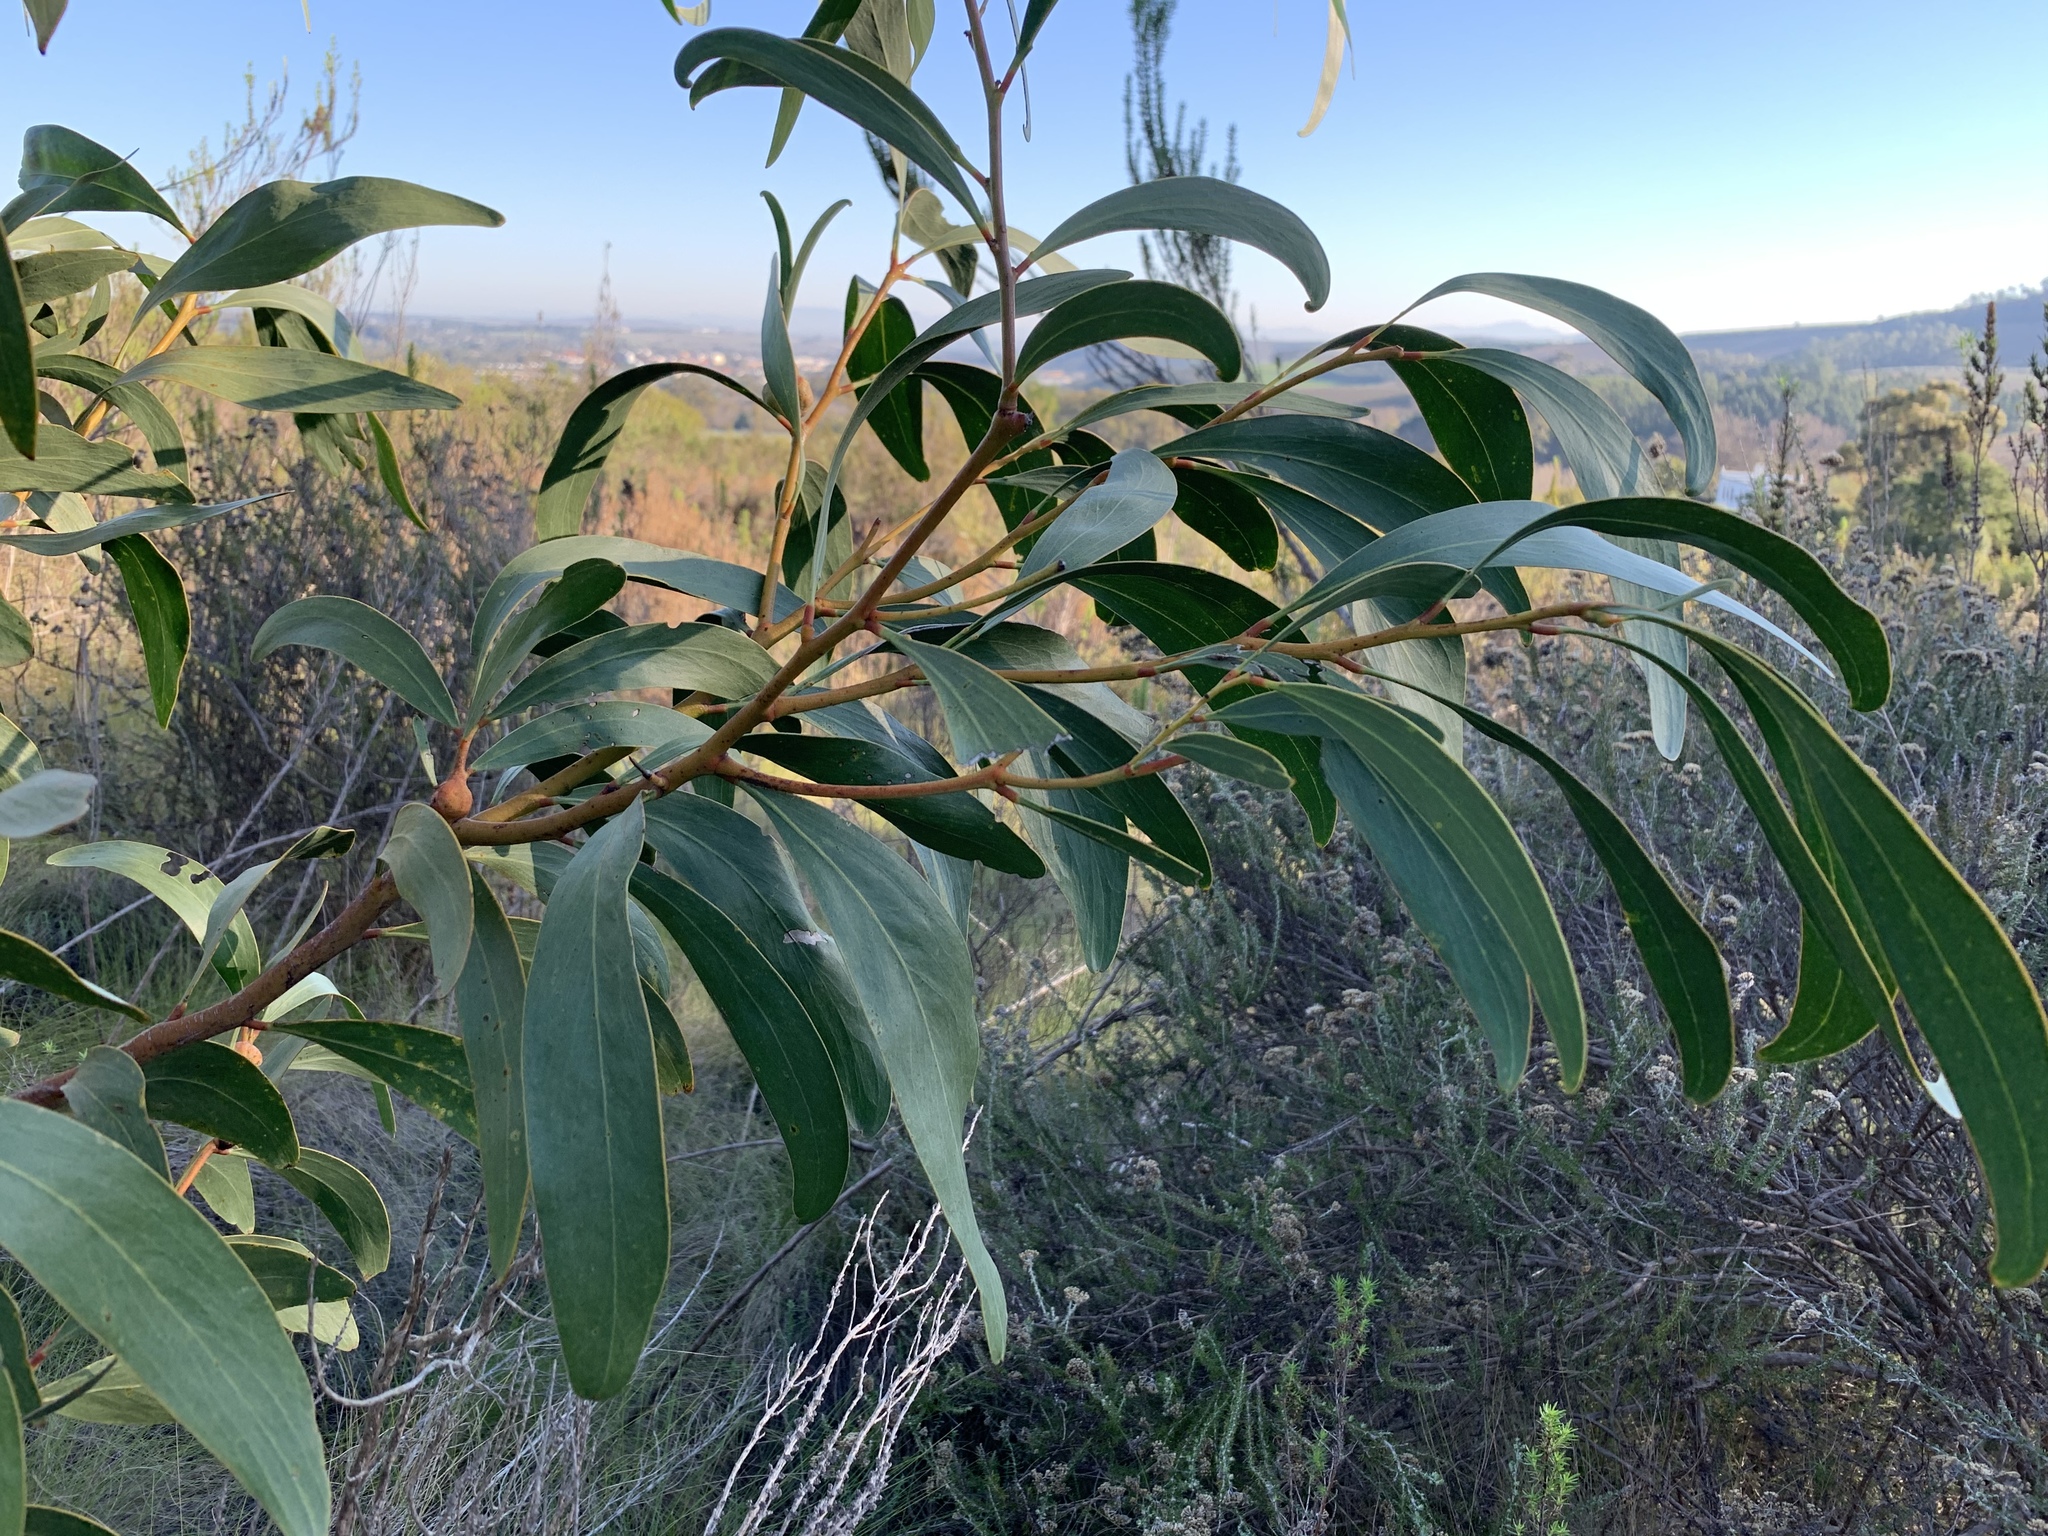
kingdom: Plantae
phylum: Tracheophyta
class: Magnoliopsida
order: Fabales
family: Fabaceae
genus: Acacia
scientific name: Acacia pycnantha
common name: Golden wattle
